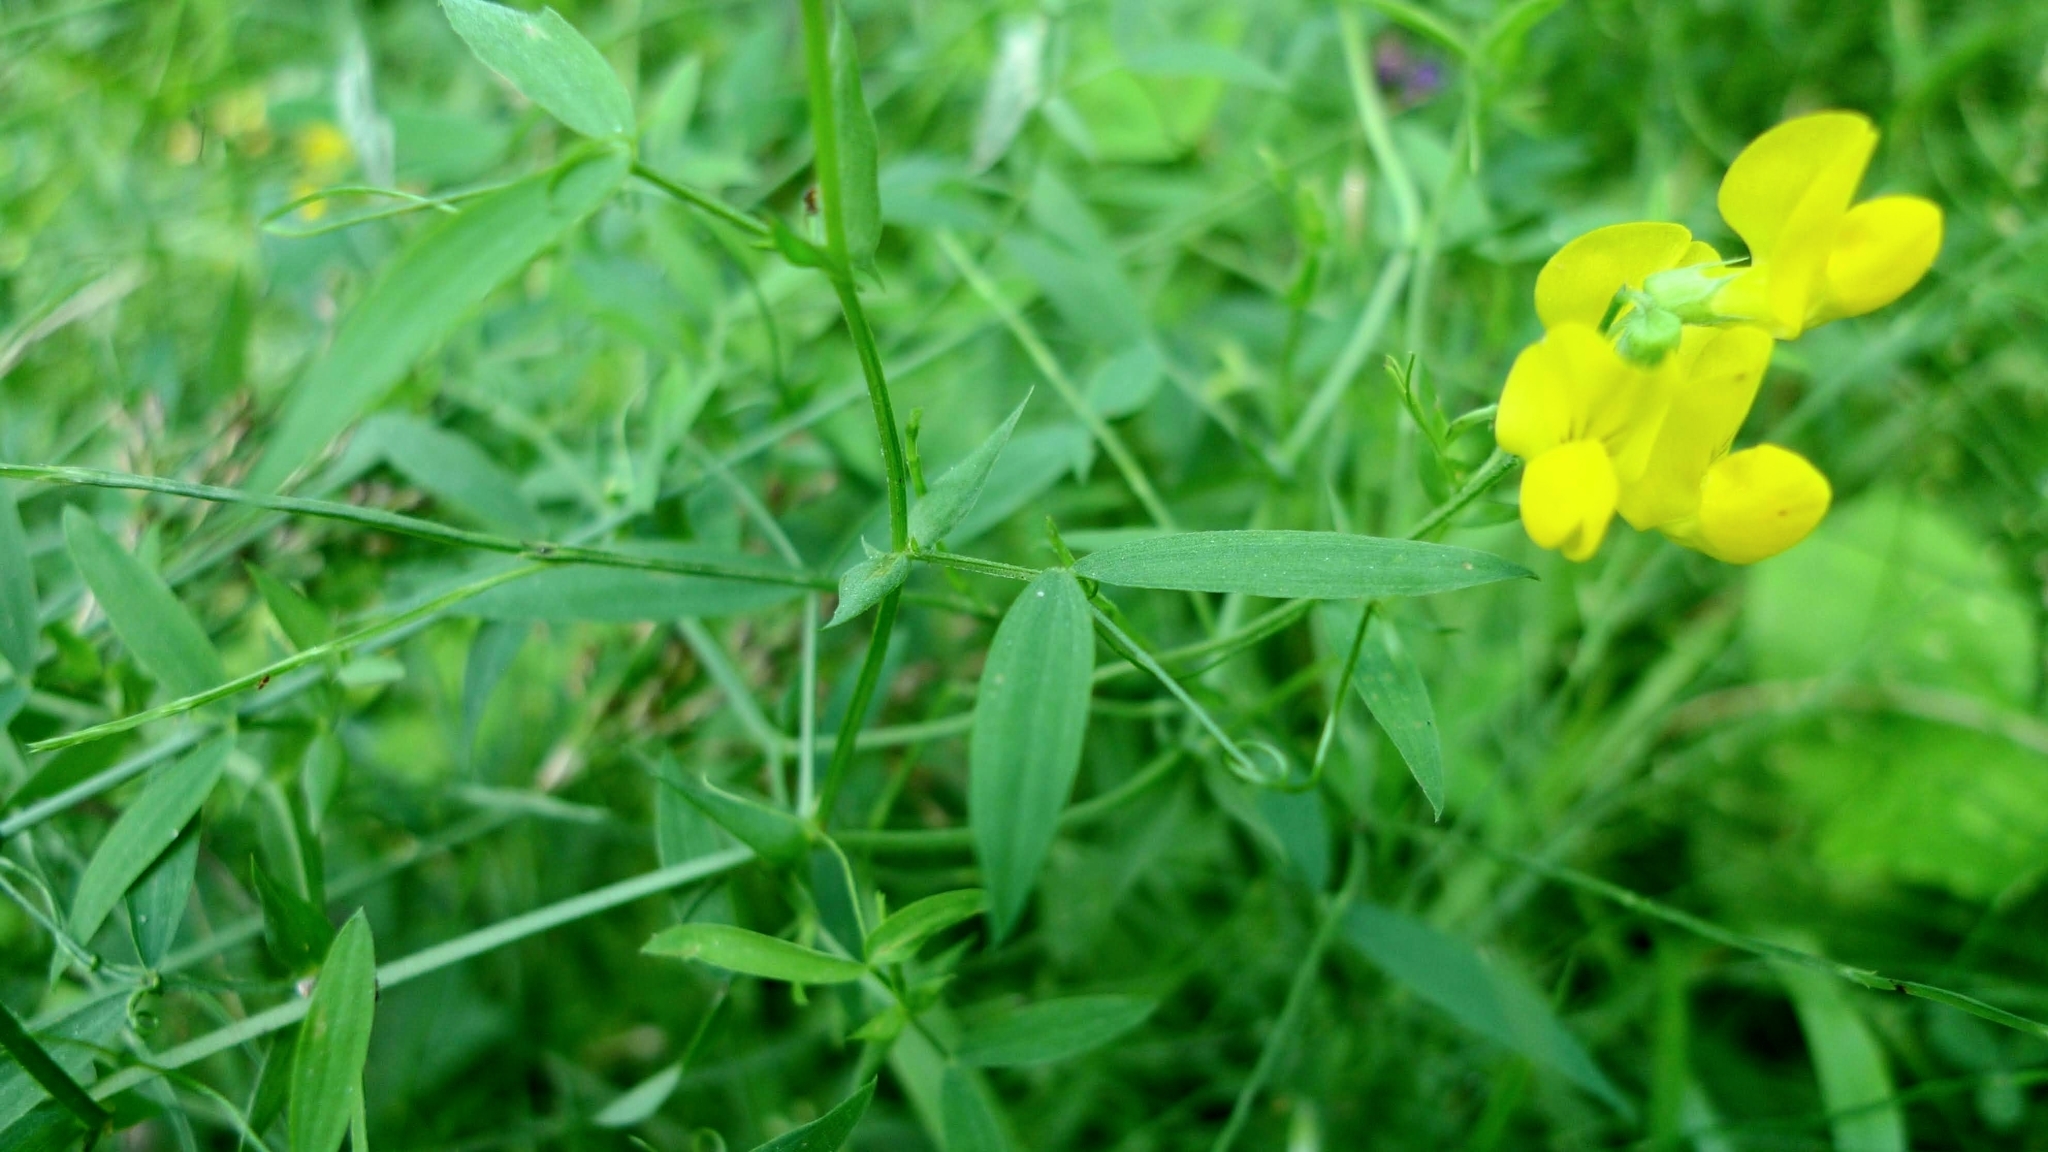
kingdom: Plantae
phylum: Tracheophyta
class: Magnoliopsida
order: Fabales
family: Fabaceae
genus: Lathyrus
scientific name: Lathyrus pratensis
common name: Meadow vetchling
